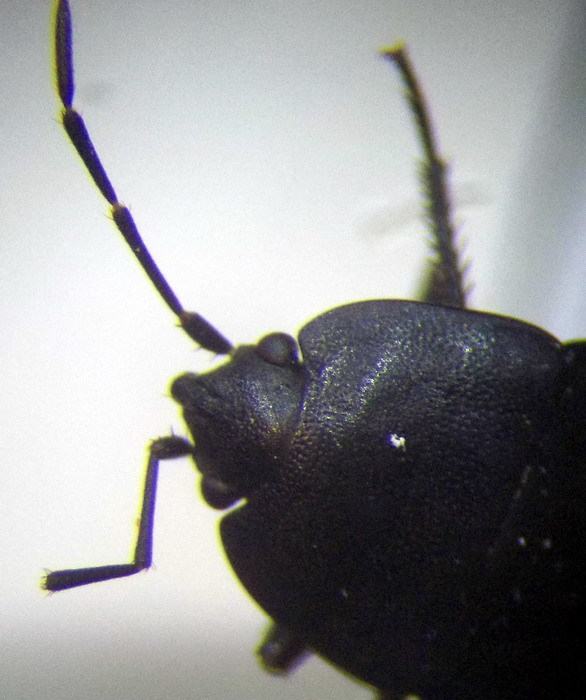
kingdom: Animalia
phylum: Arthropoda
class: Insecta
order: Hemiptera
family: Rhyparochromidae
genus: Aellopus
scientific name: Aellopus atratus
